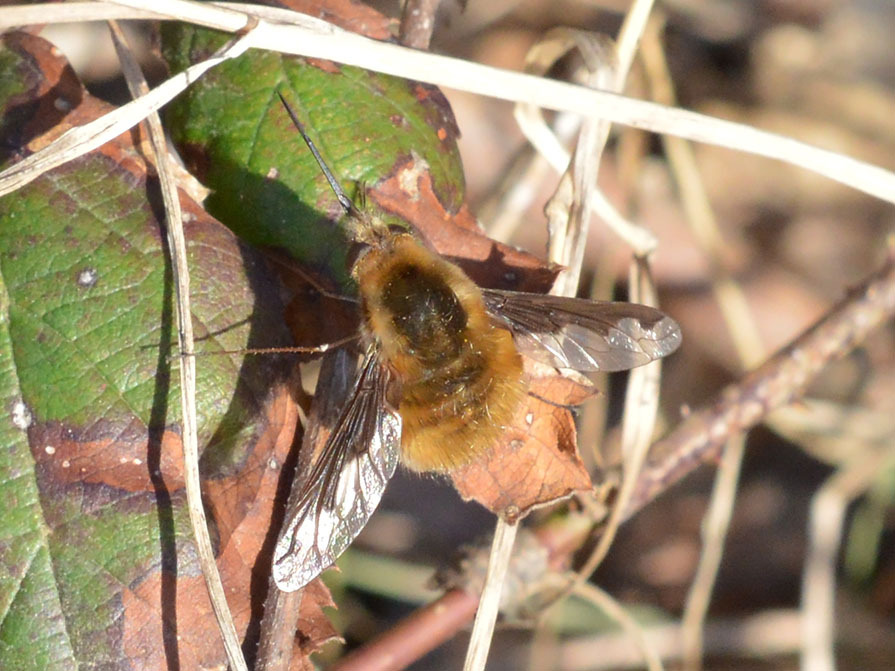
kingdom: Animalia
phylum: Arthropoda
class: Insecta
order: Diptera
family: Bombyliidae
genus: Bombylius
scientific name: Bombylius major
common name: Bee fly
